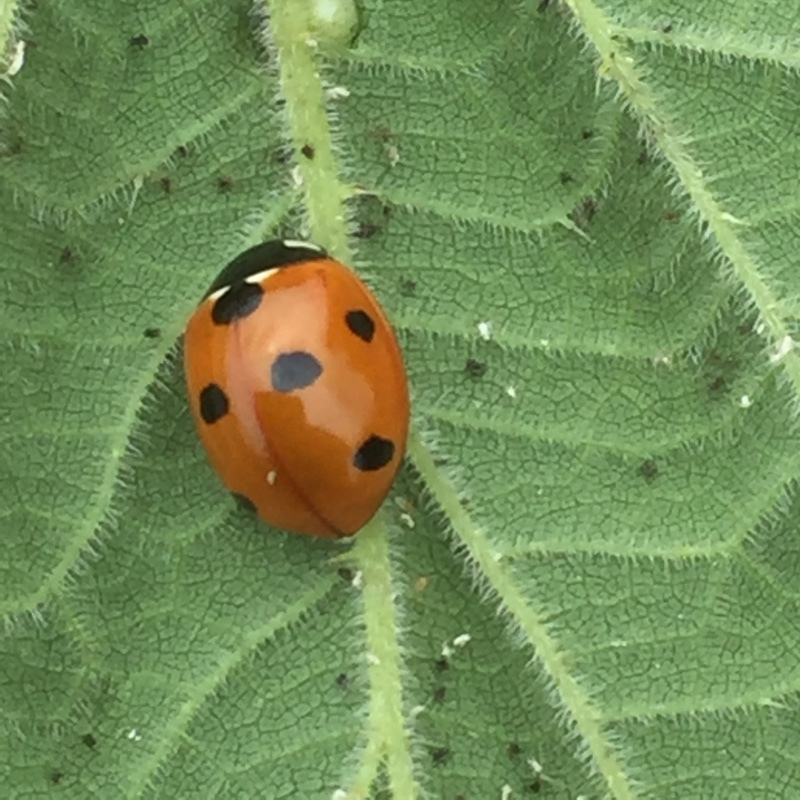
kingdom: Animalia
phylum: Arthropoda
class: Insecta
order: Coleoptera
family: Coccinellidae
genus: Coccinella
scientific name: Coccinella septempunctata
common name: Sevenspotted lady beetle
